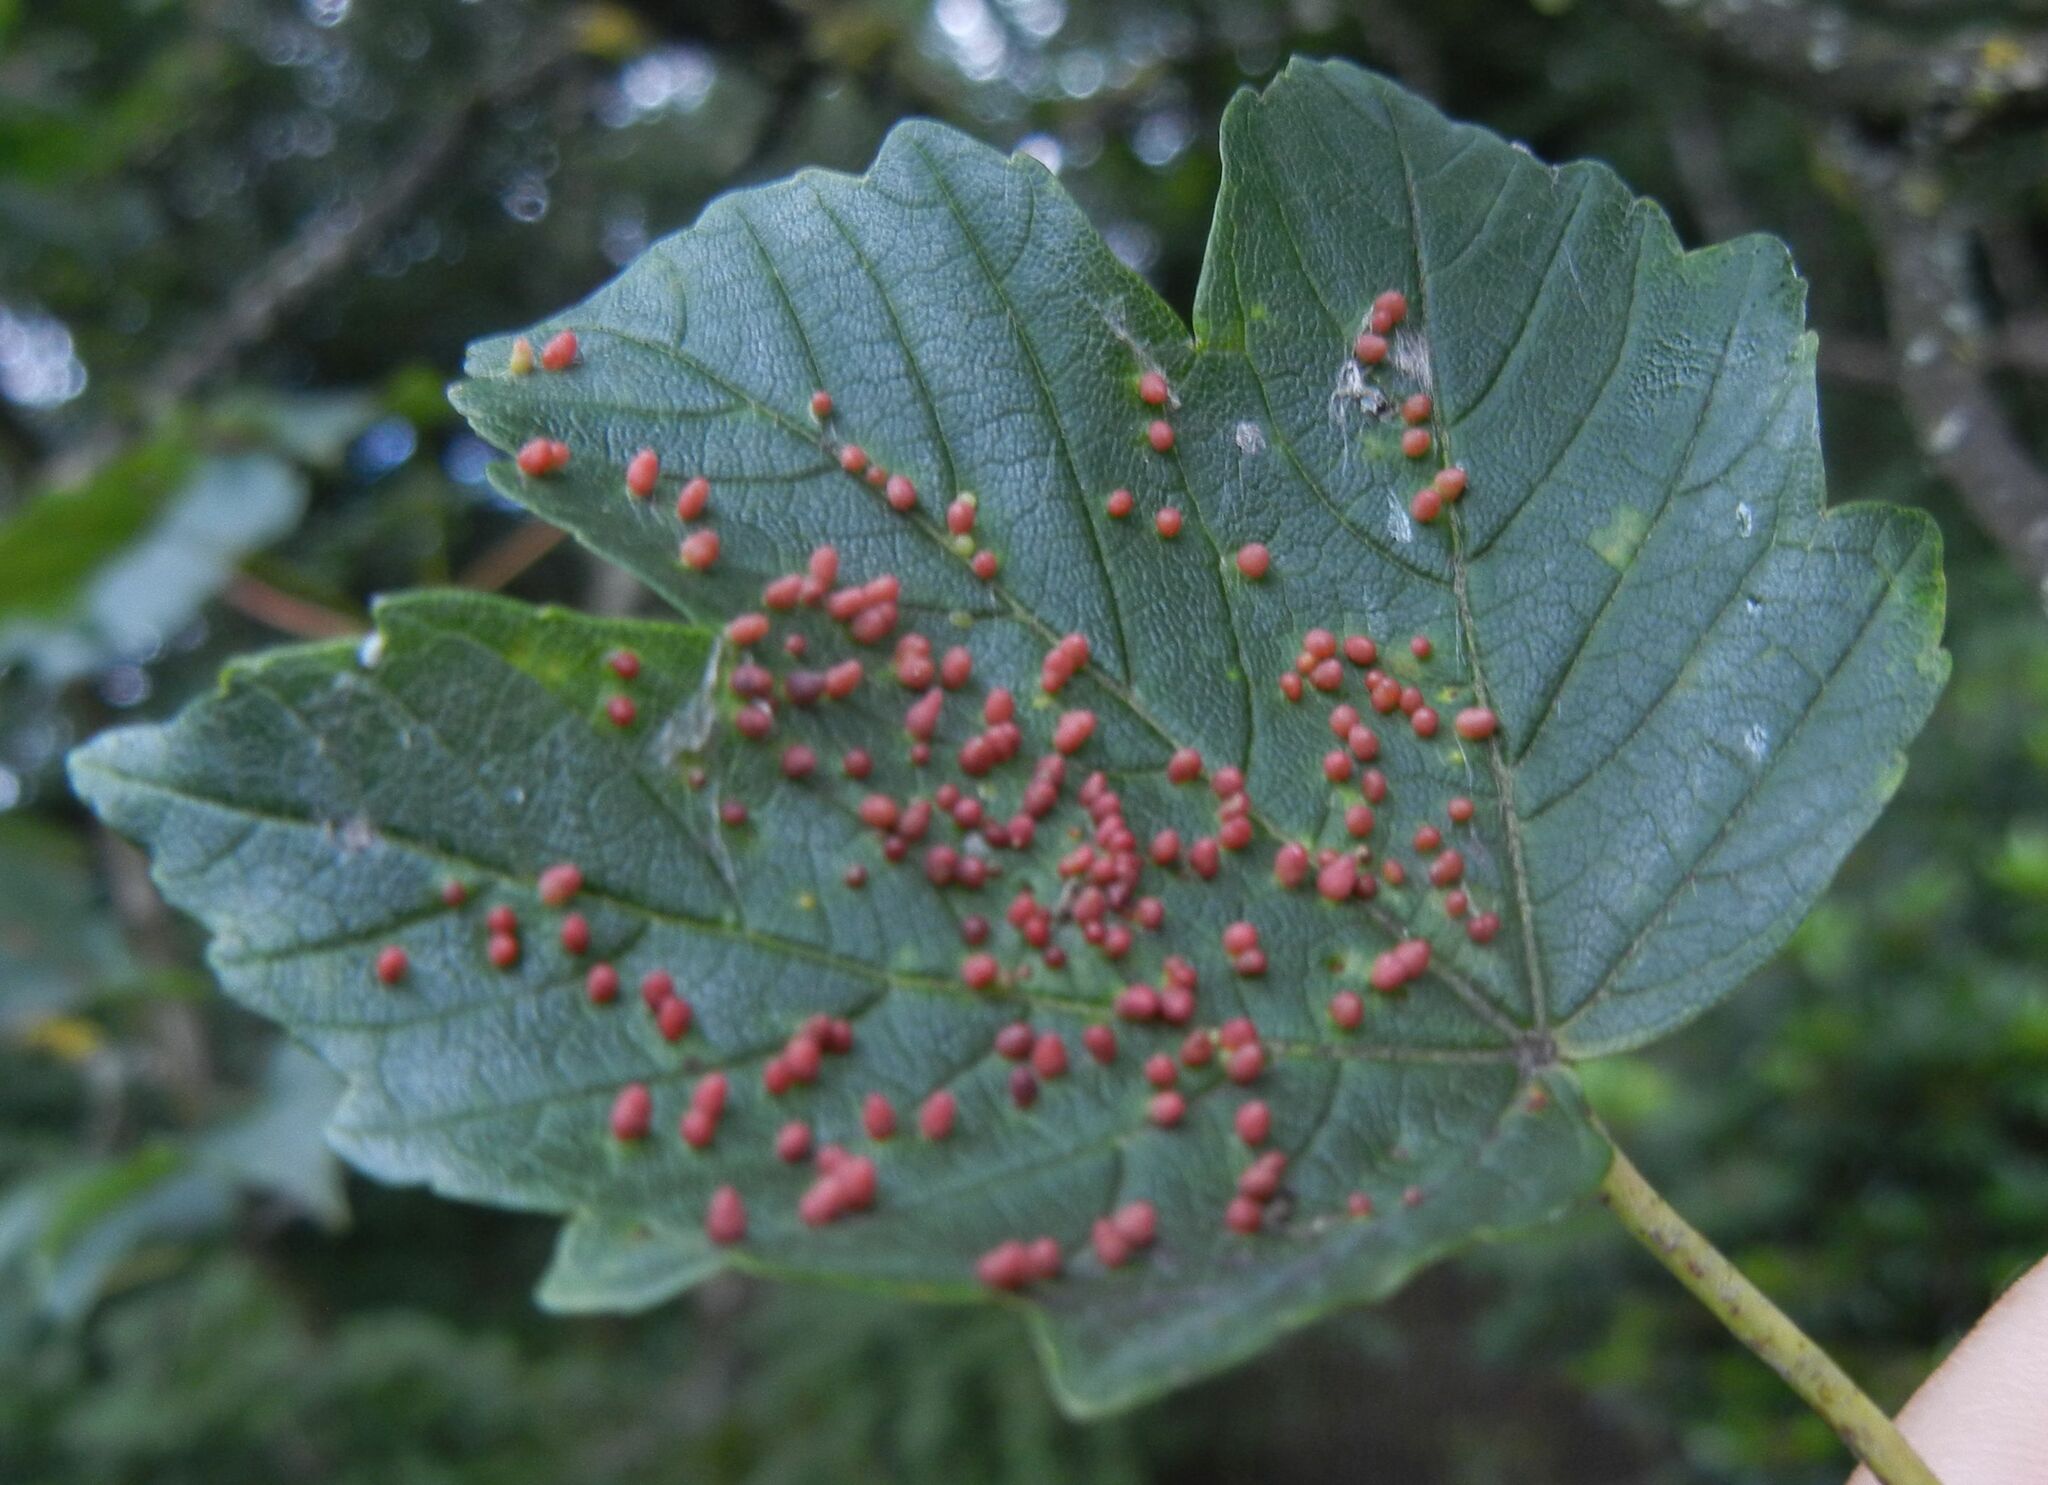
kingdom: Animalia
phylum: Arthropoda
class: Arachnida
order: Trombidiformes
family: Eriophyidae
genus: Aceria
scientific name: Aceria cephaloneus
